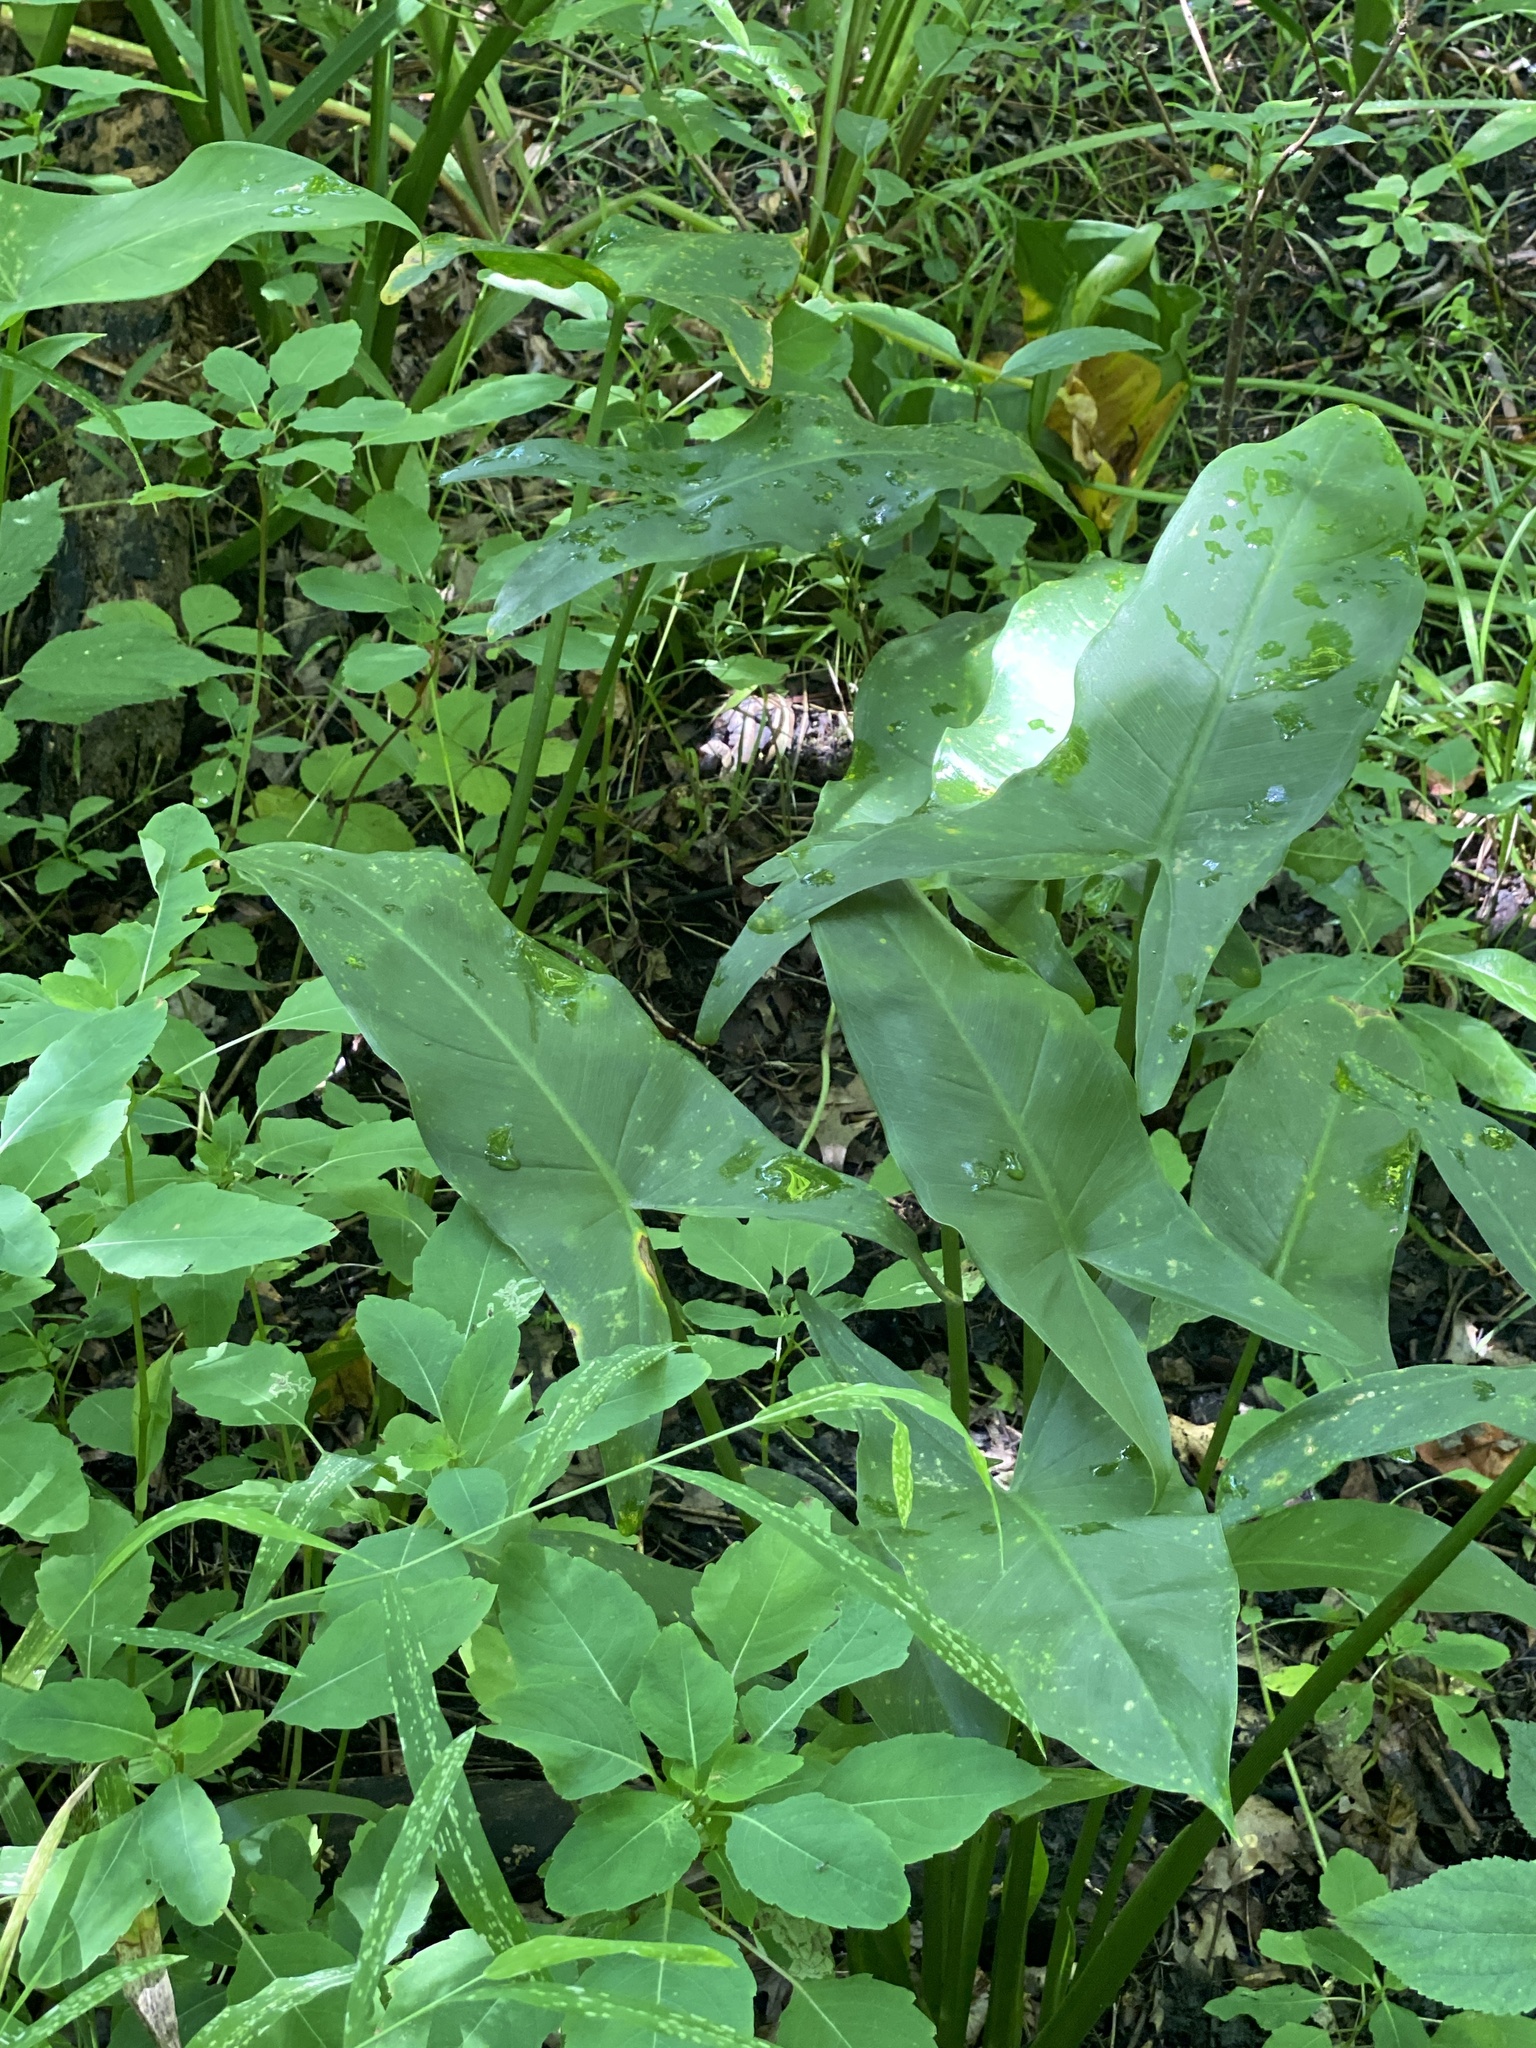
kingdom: Plantae
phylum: Tracheophyta
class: Liliopsida
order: Alismatales
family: Araceae
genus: Peltandra
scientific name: Peltandra virginica
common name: Arrow arum
